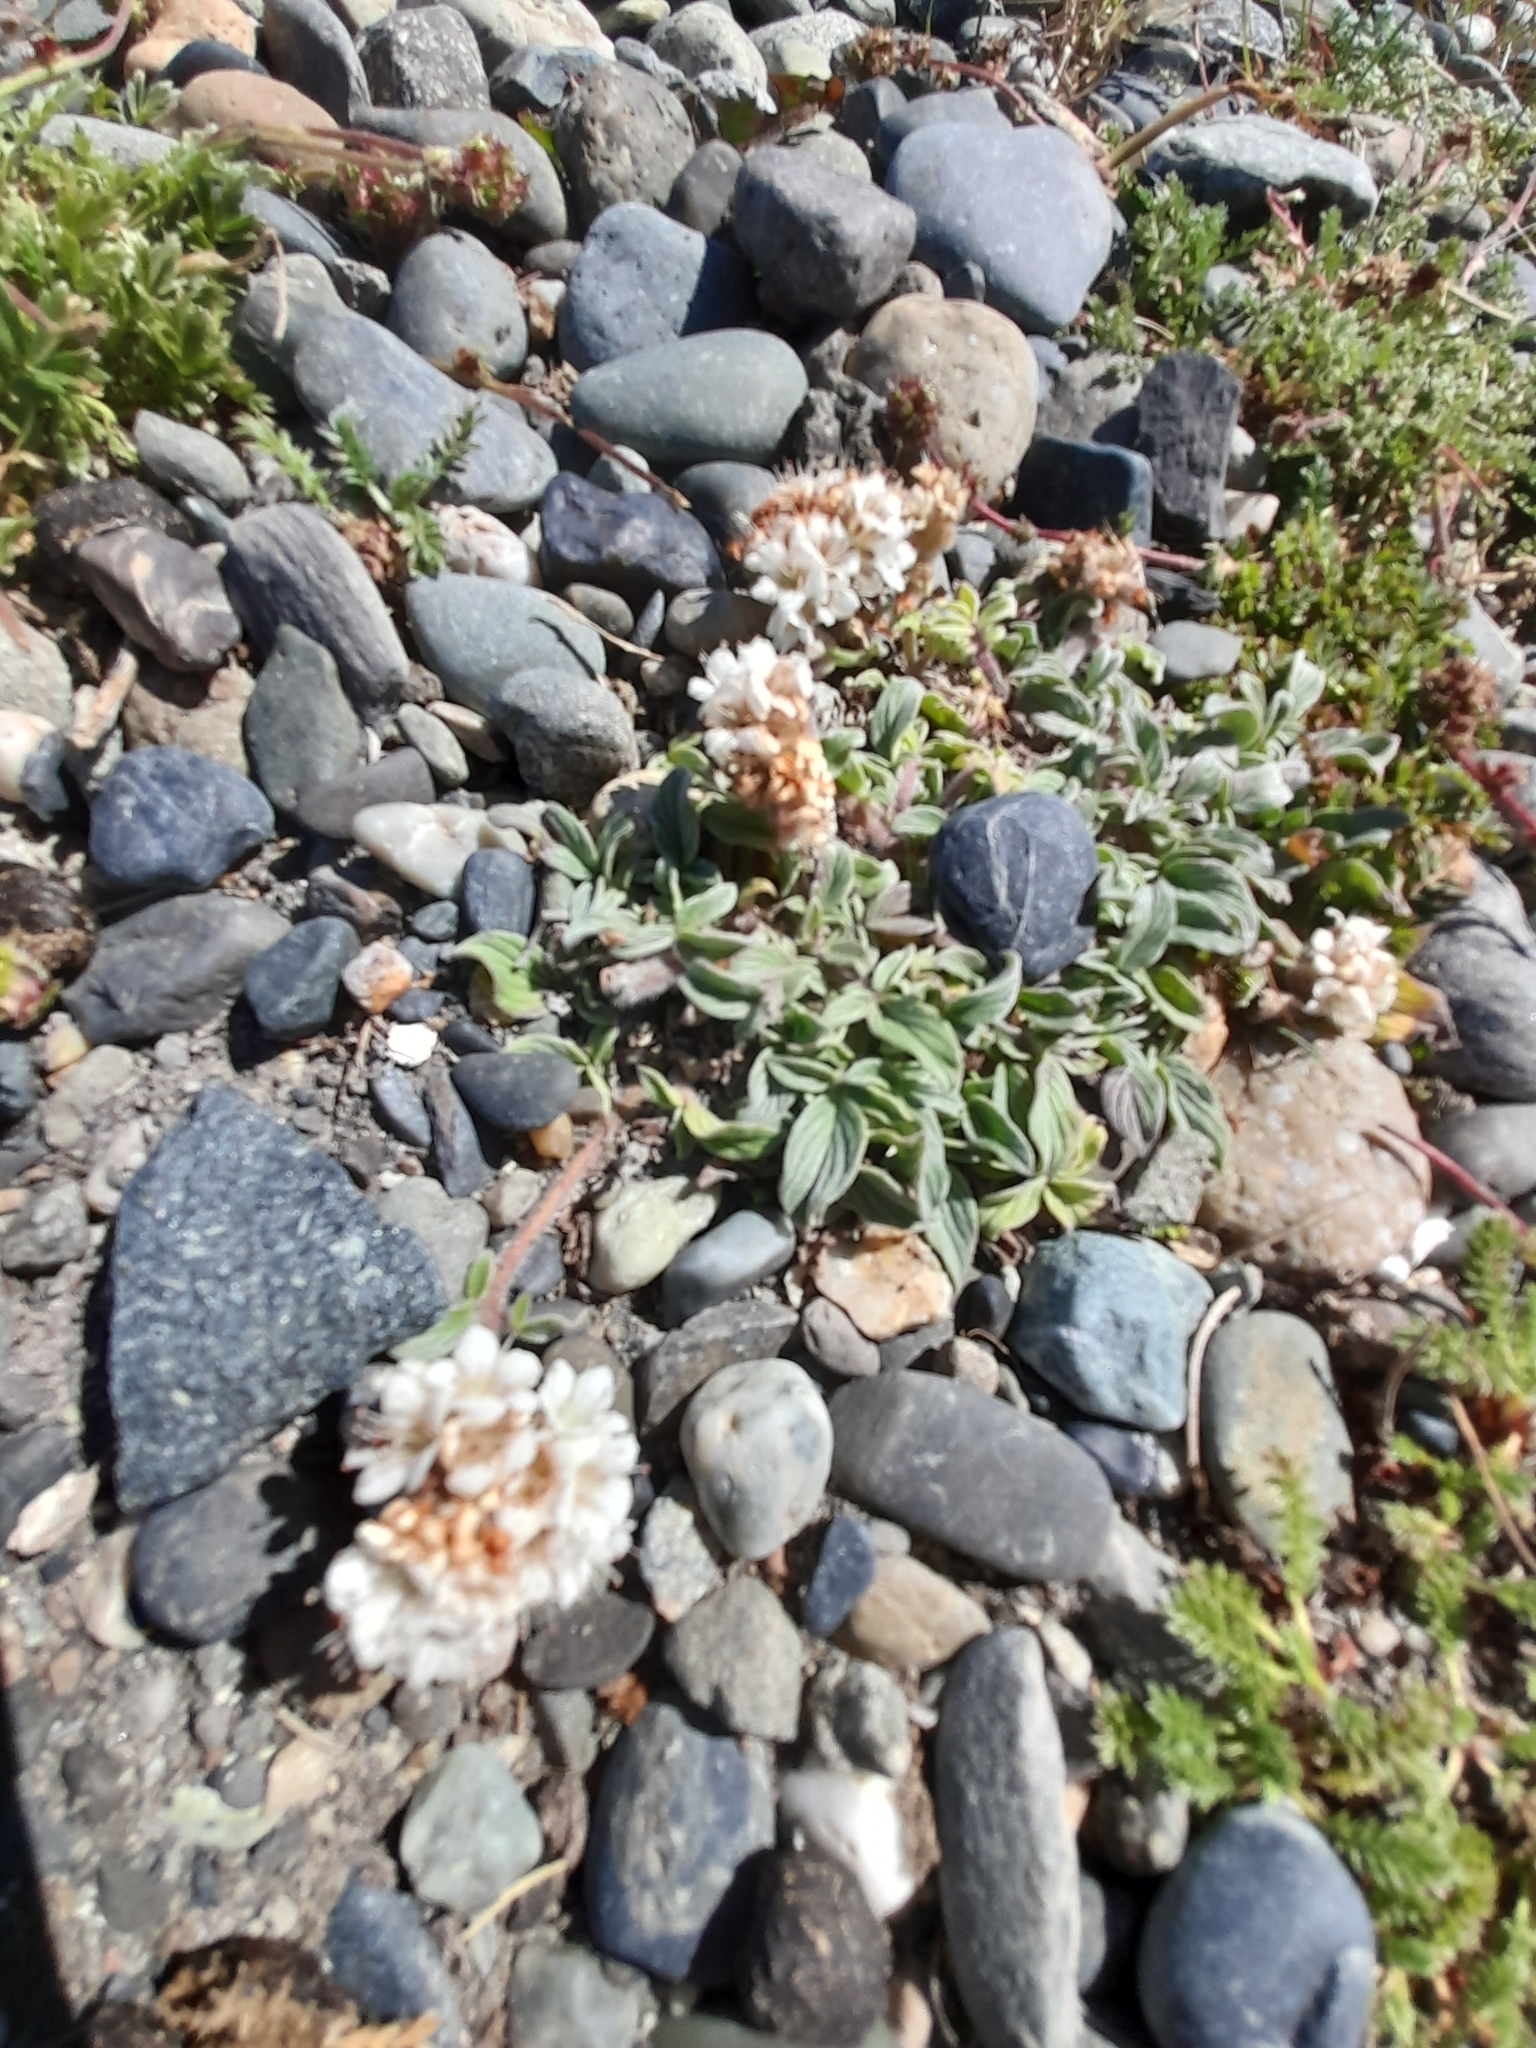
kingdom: Plantae
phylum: Tracheophyta
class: Magnoliopsida
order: Boraginales
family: Hydrophyllaceae
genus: Phacelia
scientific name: Phacelia secunda
